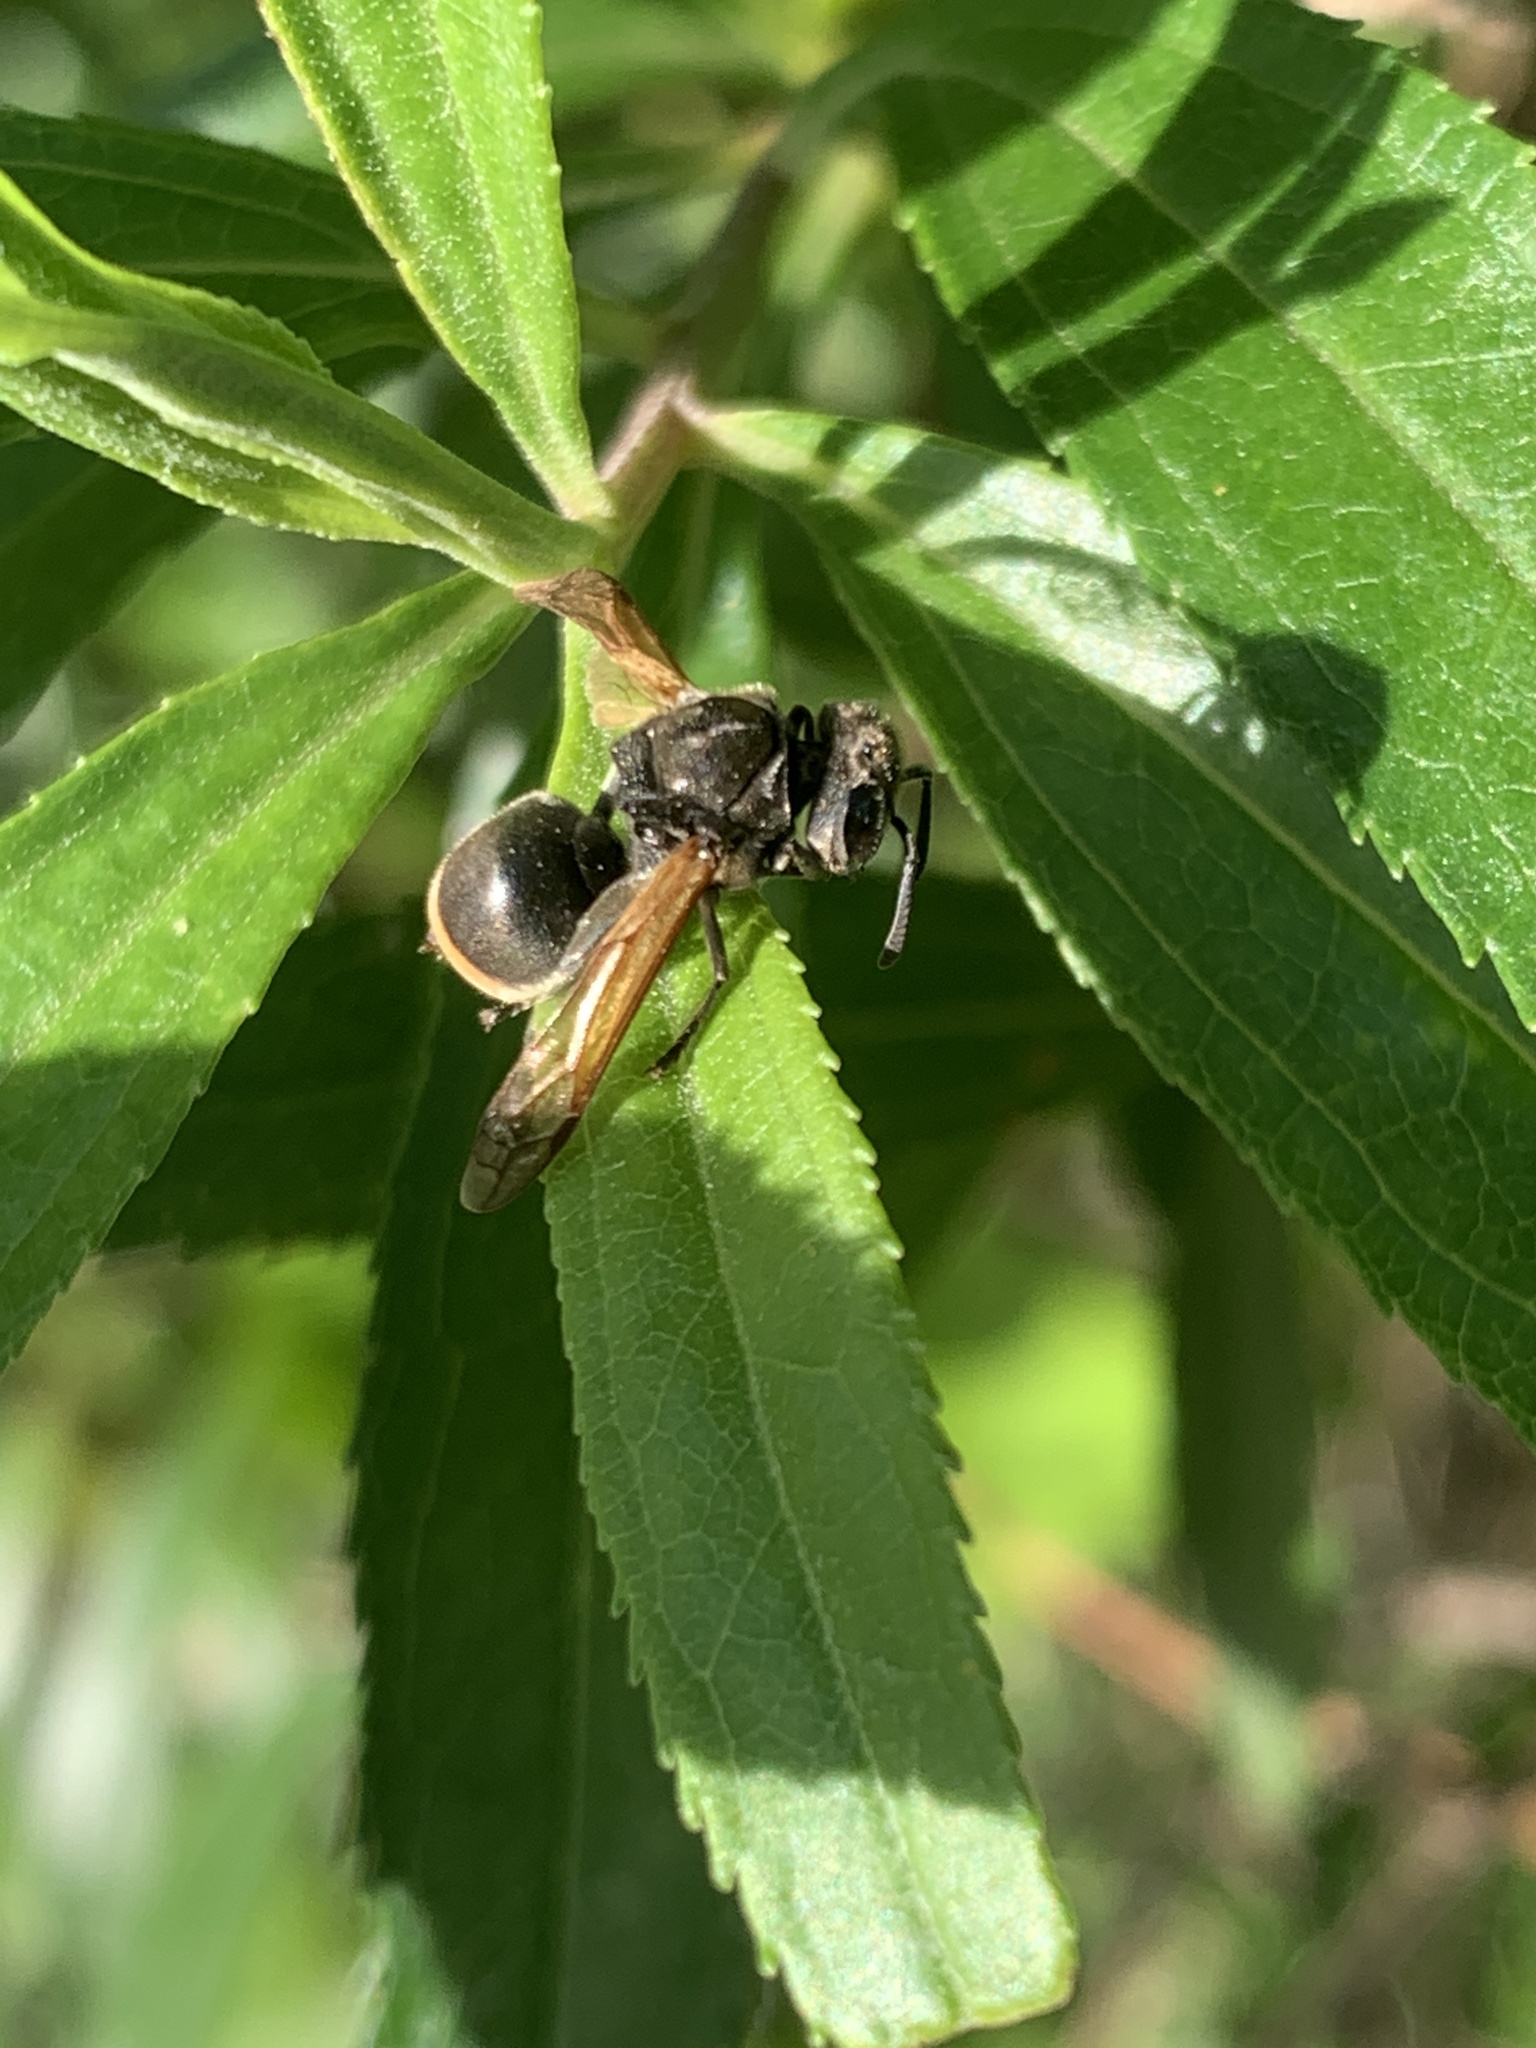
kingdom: Animalia
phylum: Arthropoda
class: Insecta
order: Hymenoptera
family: Vespidae
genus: Brachygastra
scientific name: Brachygastra lecheguana
